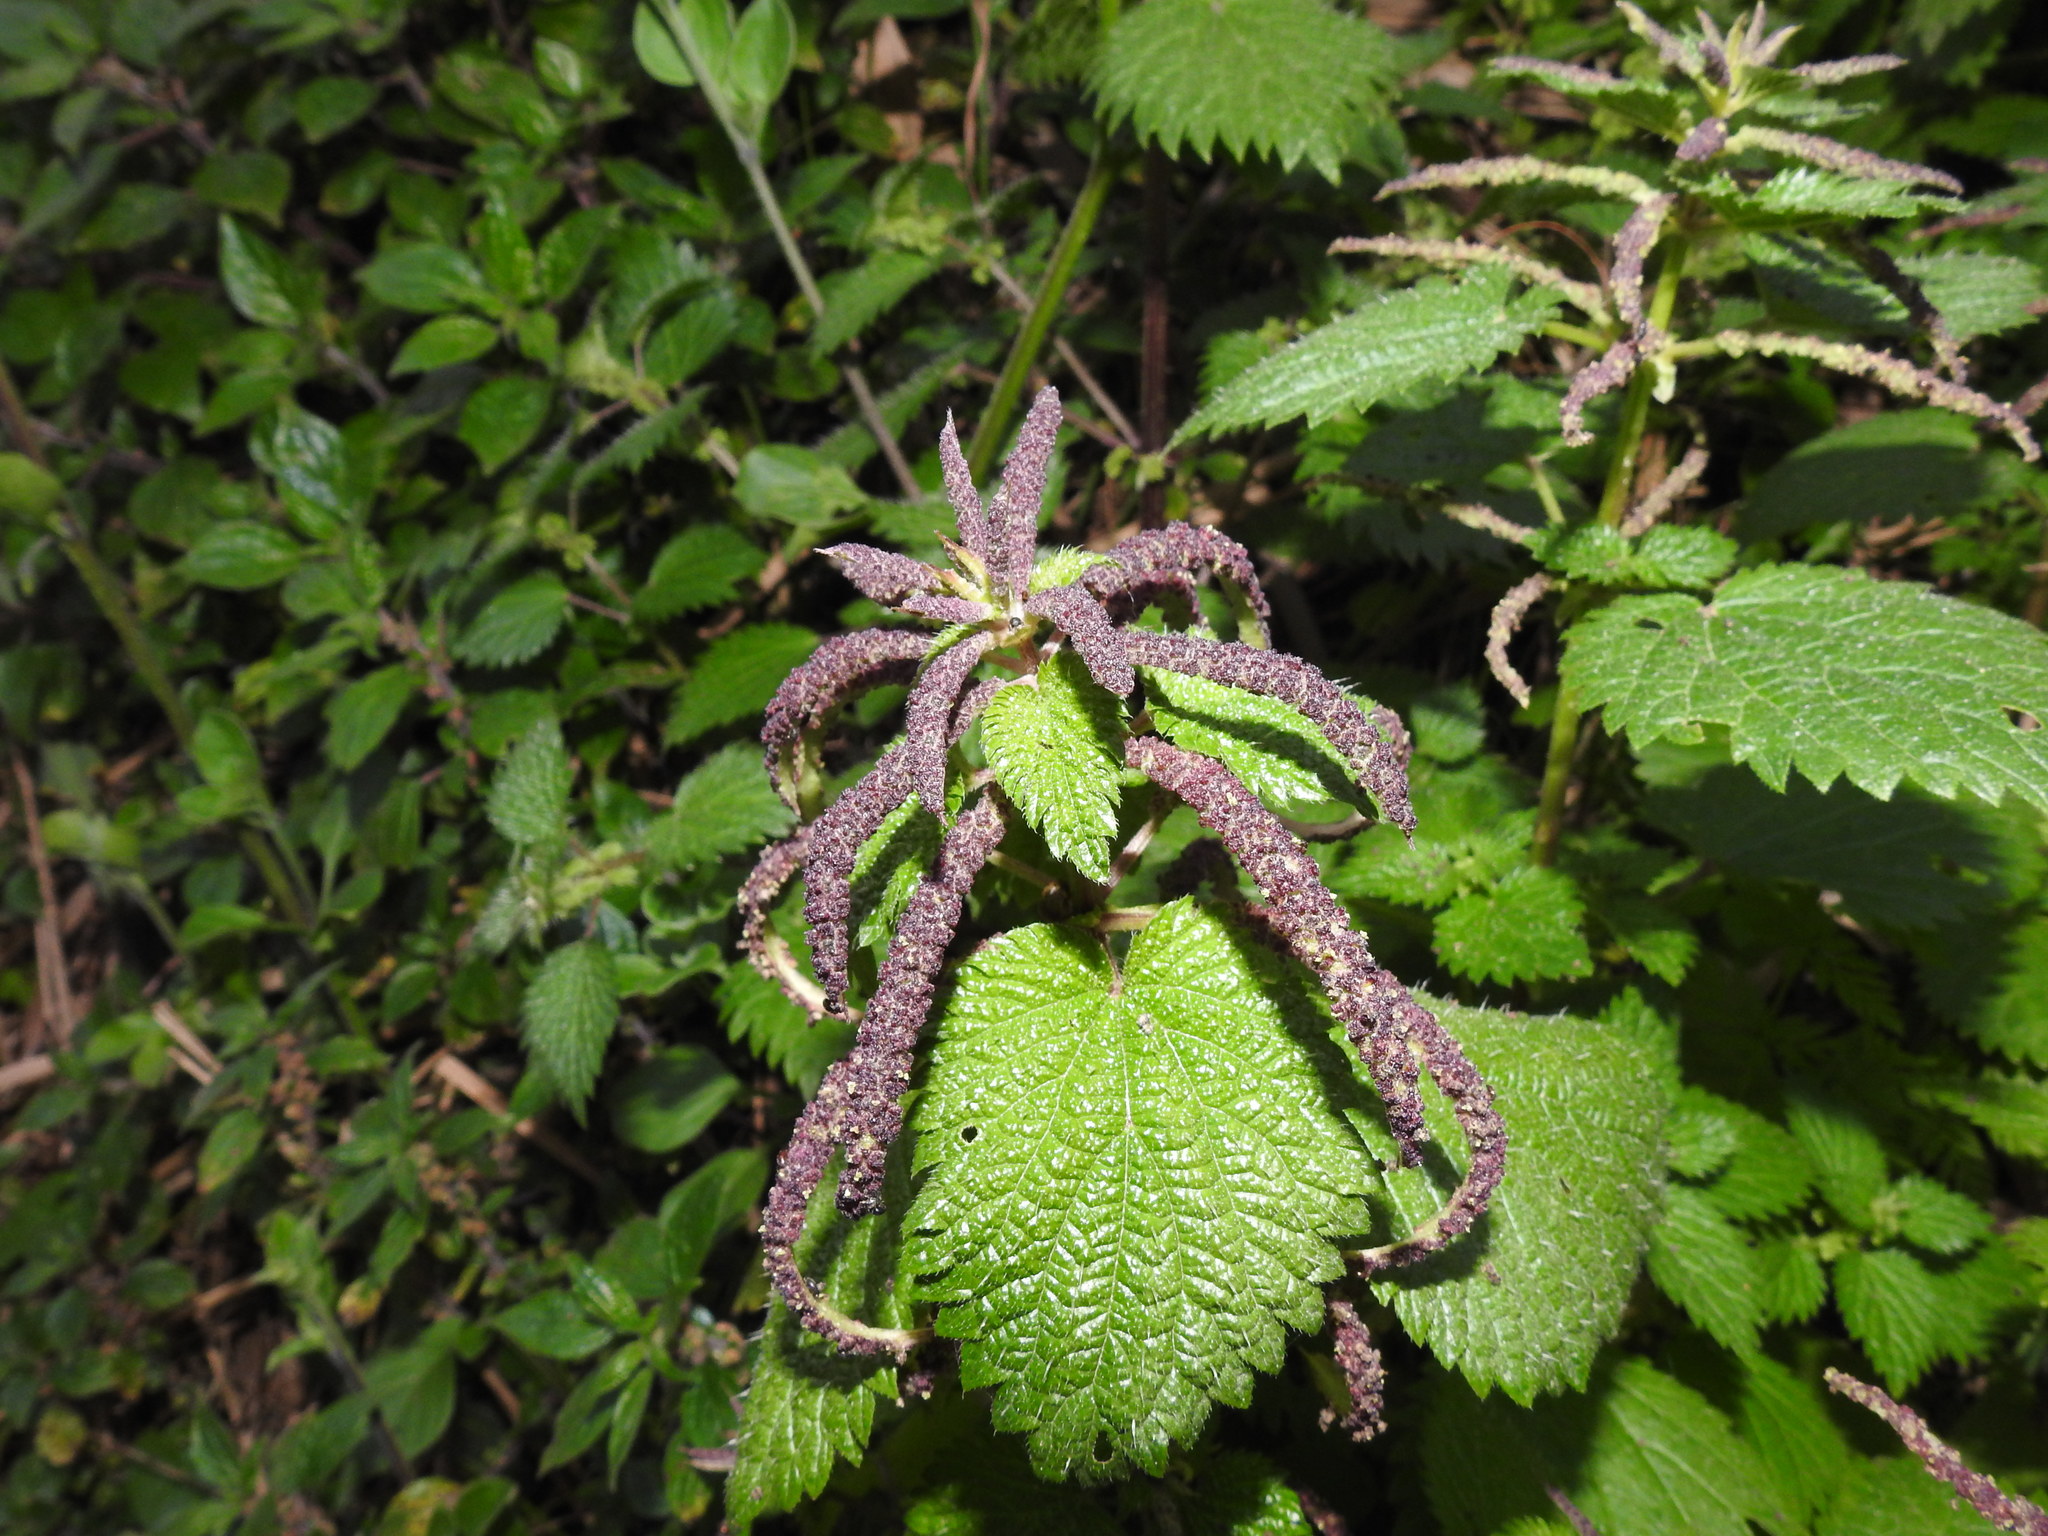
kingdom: Plantae
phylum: Tracheophyta
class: Magnoliopsida
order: Rosales
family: Urticaceae
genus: Urtica
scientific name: Urtica membranacea
